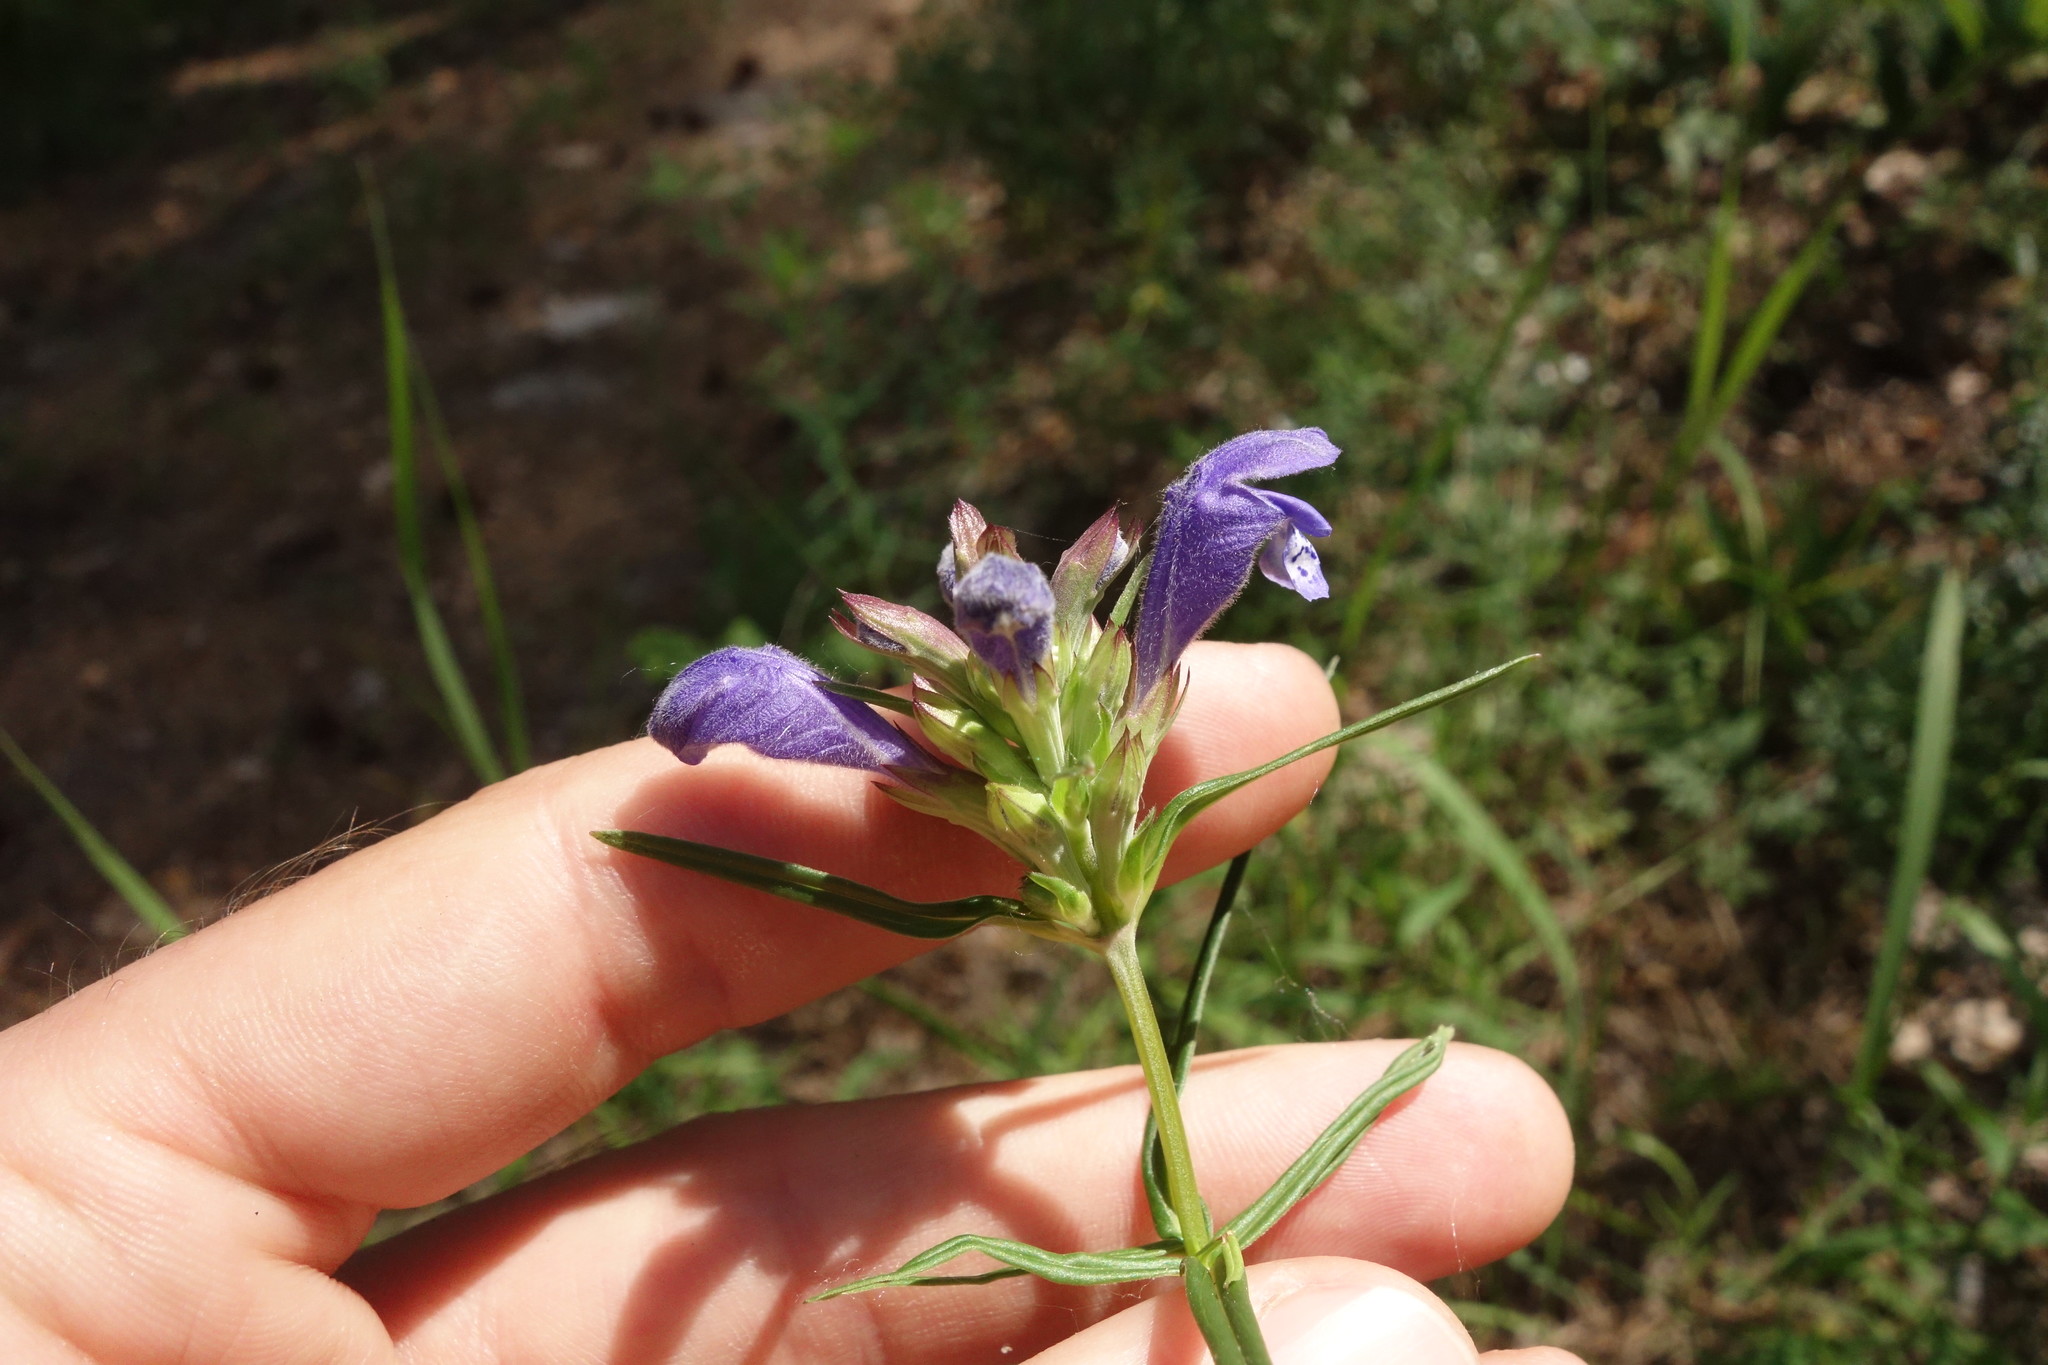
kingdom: Plantae
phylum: Tracheophyta
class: Magnoliopsida
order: Lamiales
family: Lamiaceae
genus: Dracocephalum
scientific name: Dracocephalum ruyschiana
